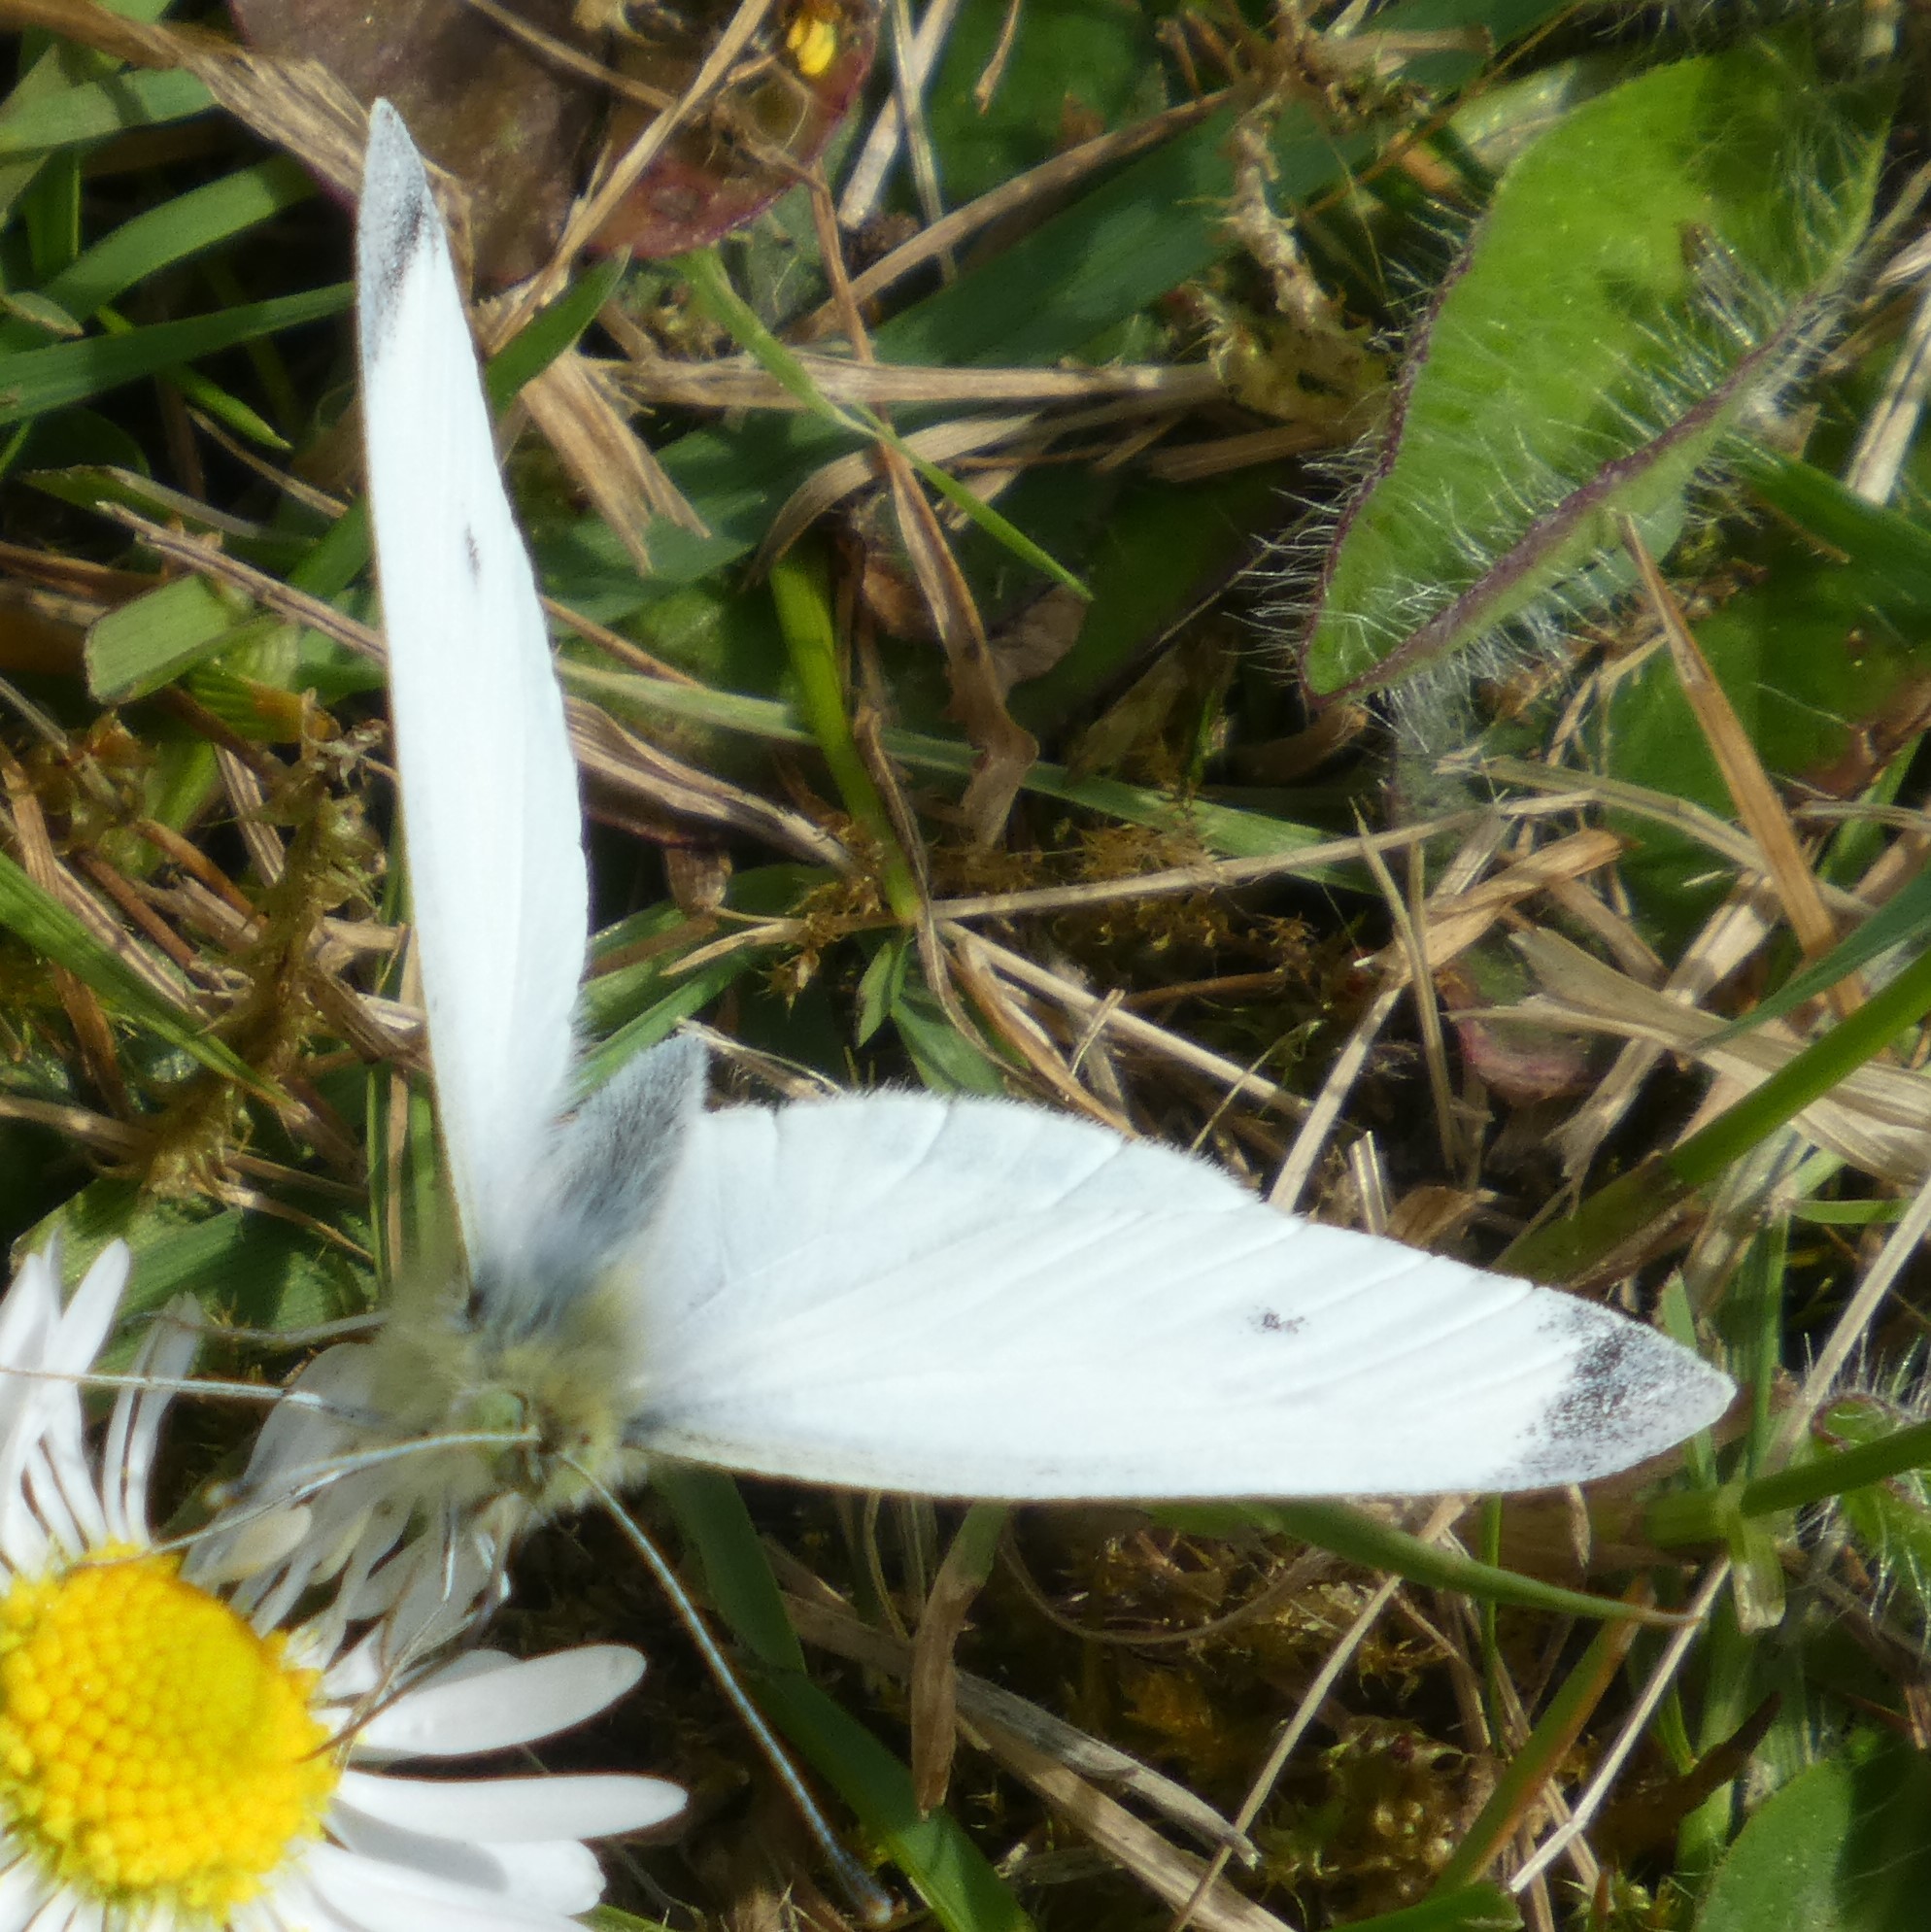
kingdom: Animalia
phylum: Arthropoda
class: Insecta
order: Lepidoptera
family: Pieridae
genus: Pieris
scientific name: Pieris rapae
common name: Small white
